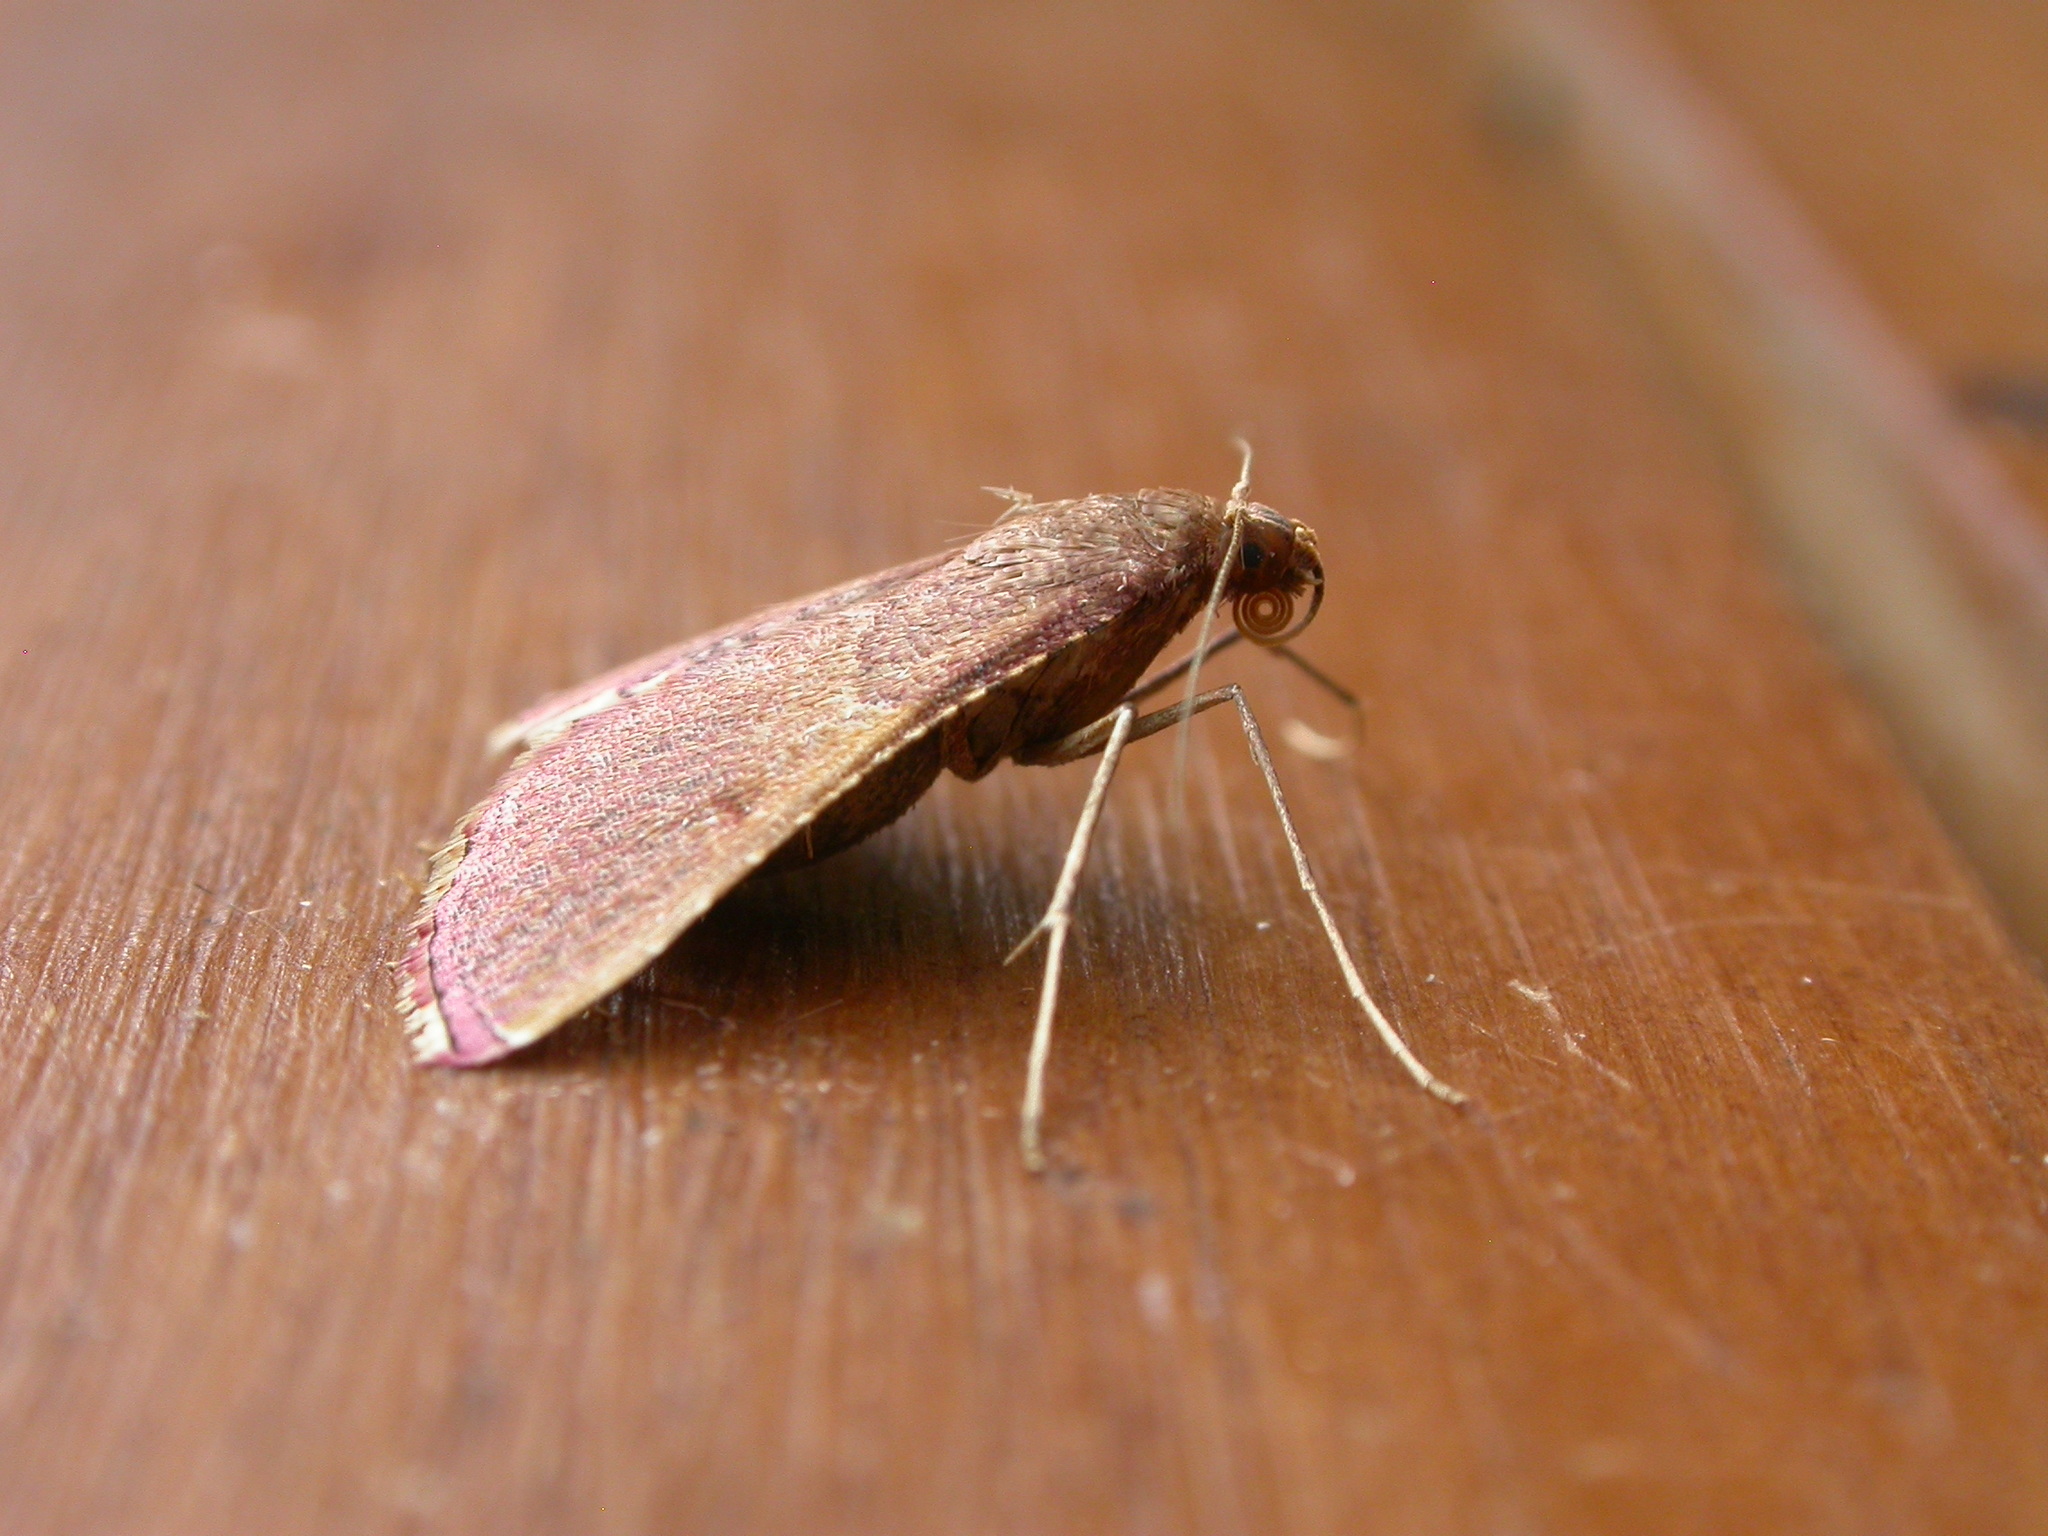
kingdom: Animalia
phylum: Arthropoda
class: Insecta
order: Lepidoptera
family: Pyralidae
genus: Endotricha
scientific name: Endotricha mesenterialis
